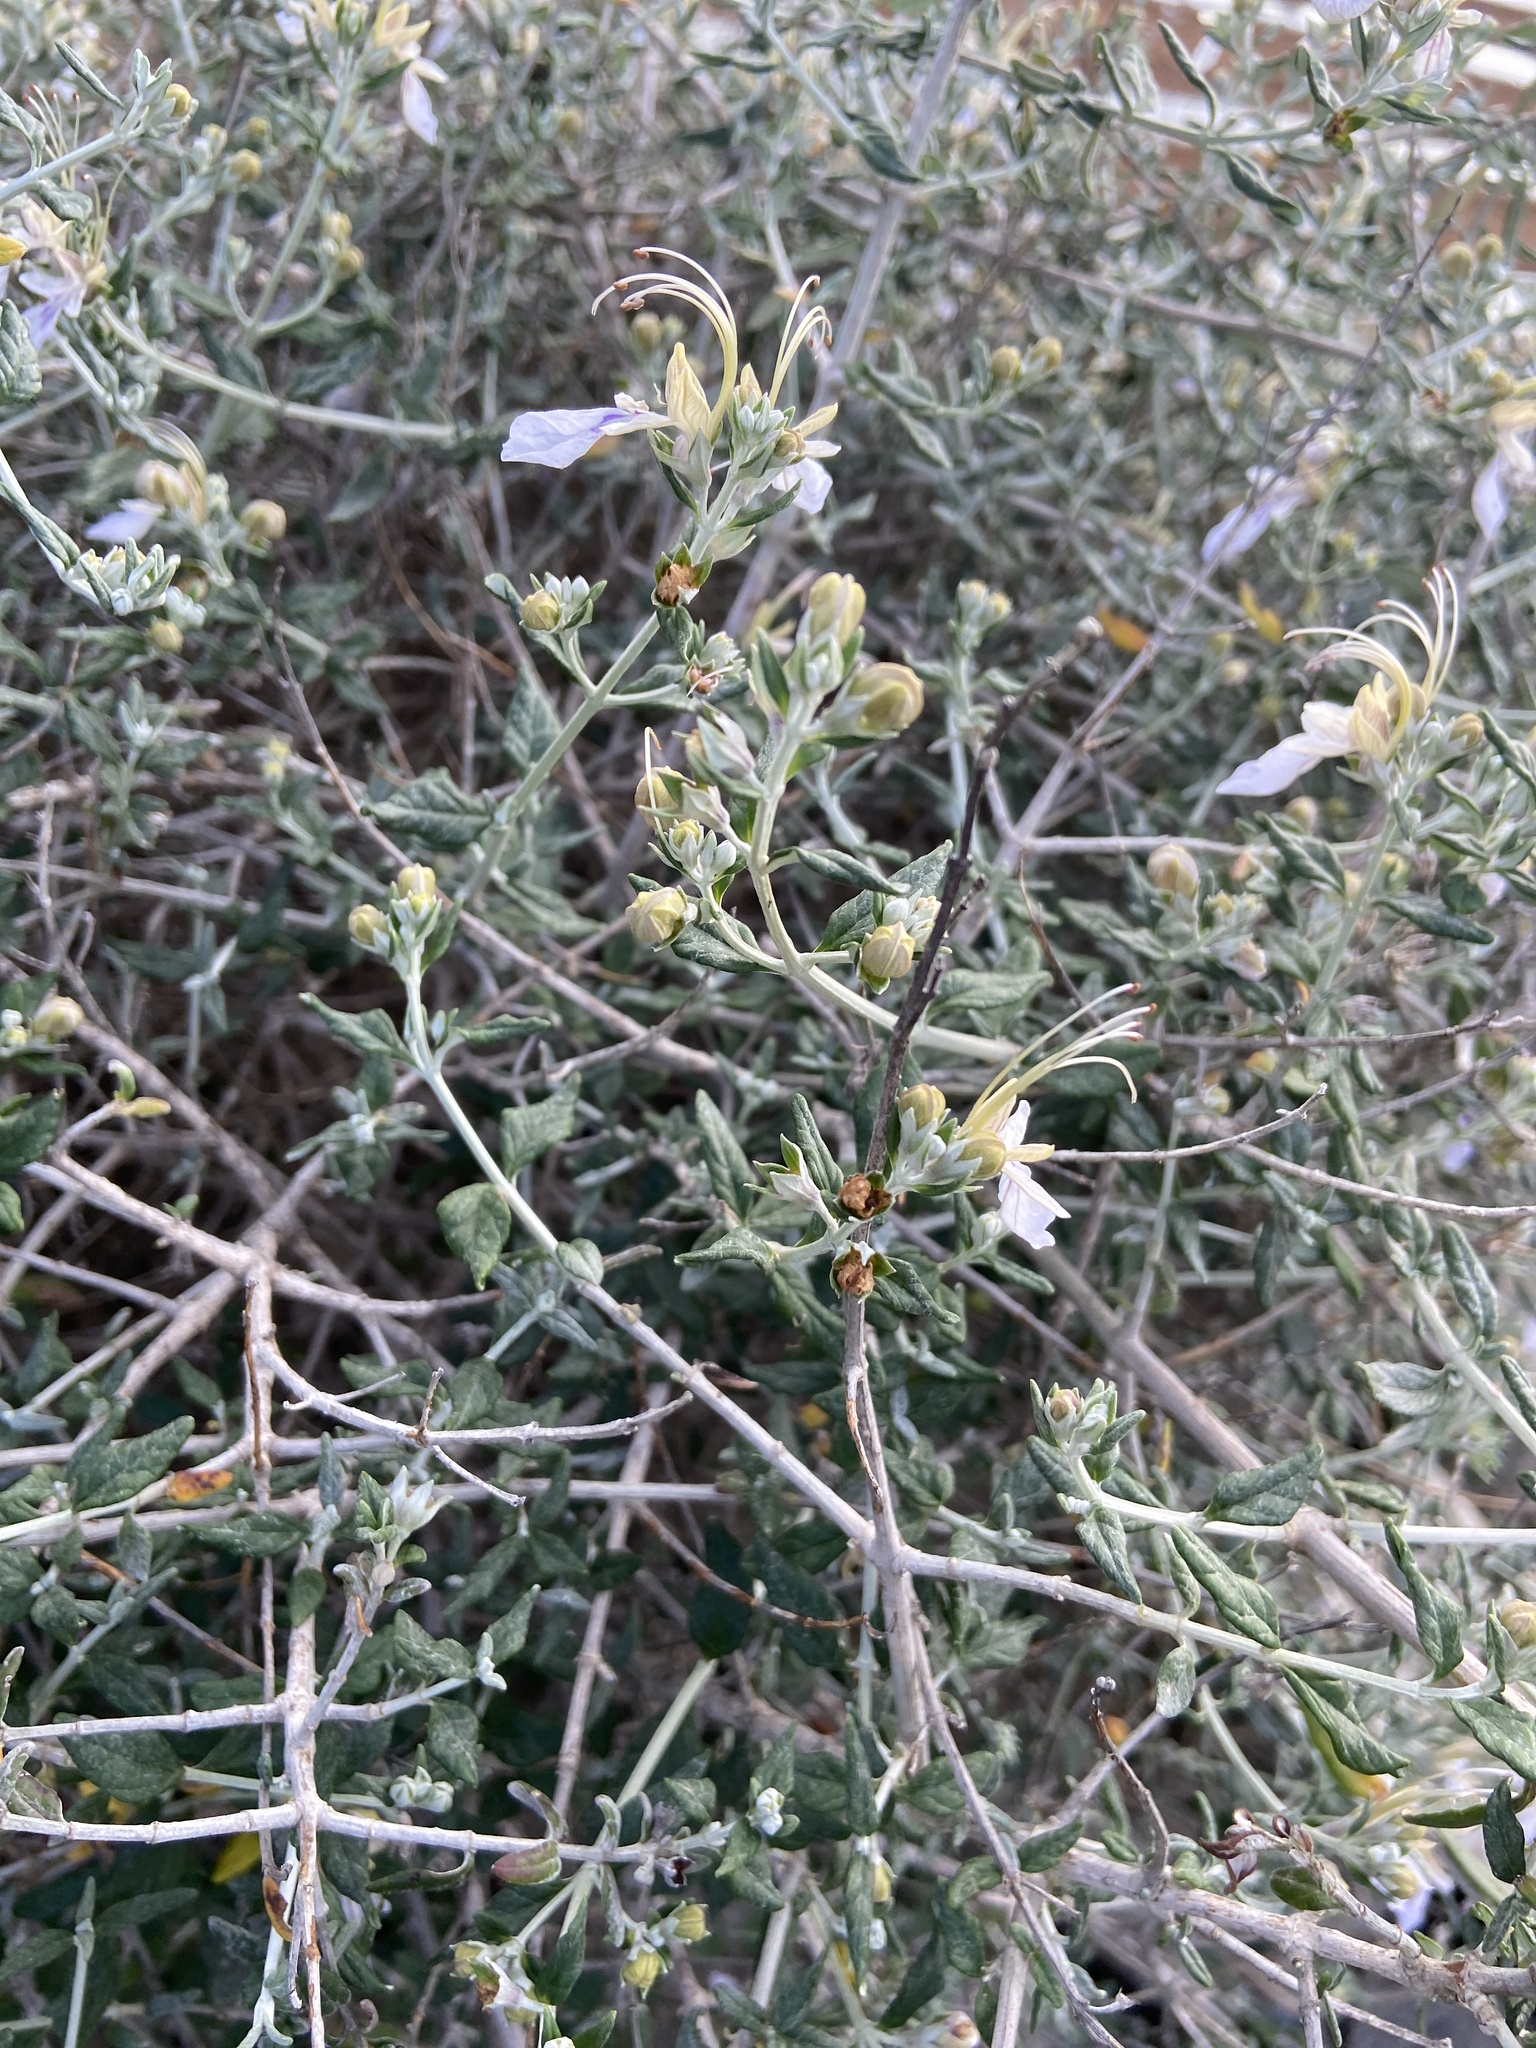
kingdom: Plantae
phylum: Tracheophyta
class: Magnoliopsida
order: Lamiales
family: Lamiaceae
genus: Teucrium
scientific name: Teucrium fruticans
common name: Shrubby germander
